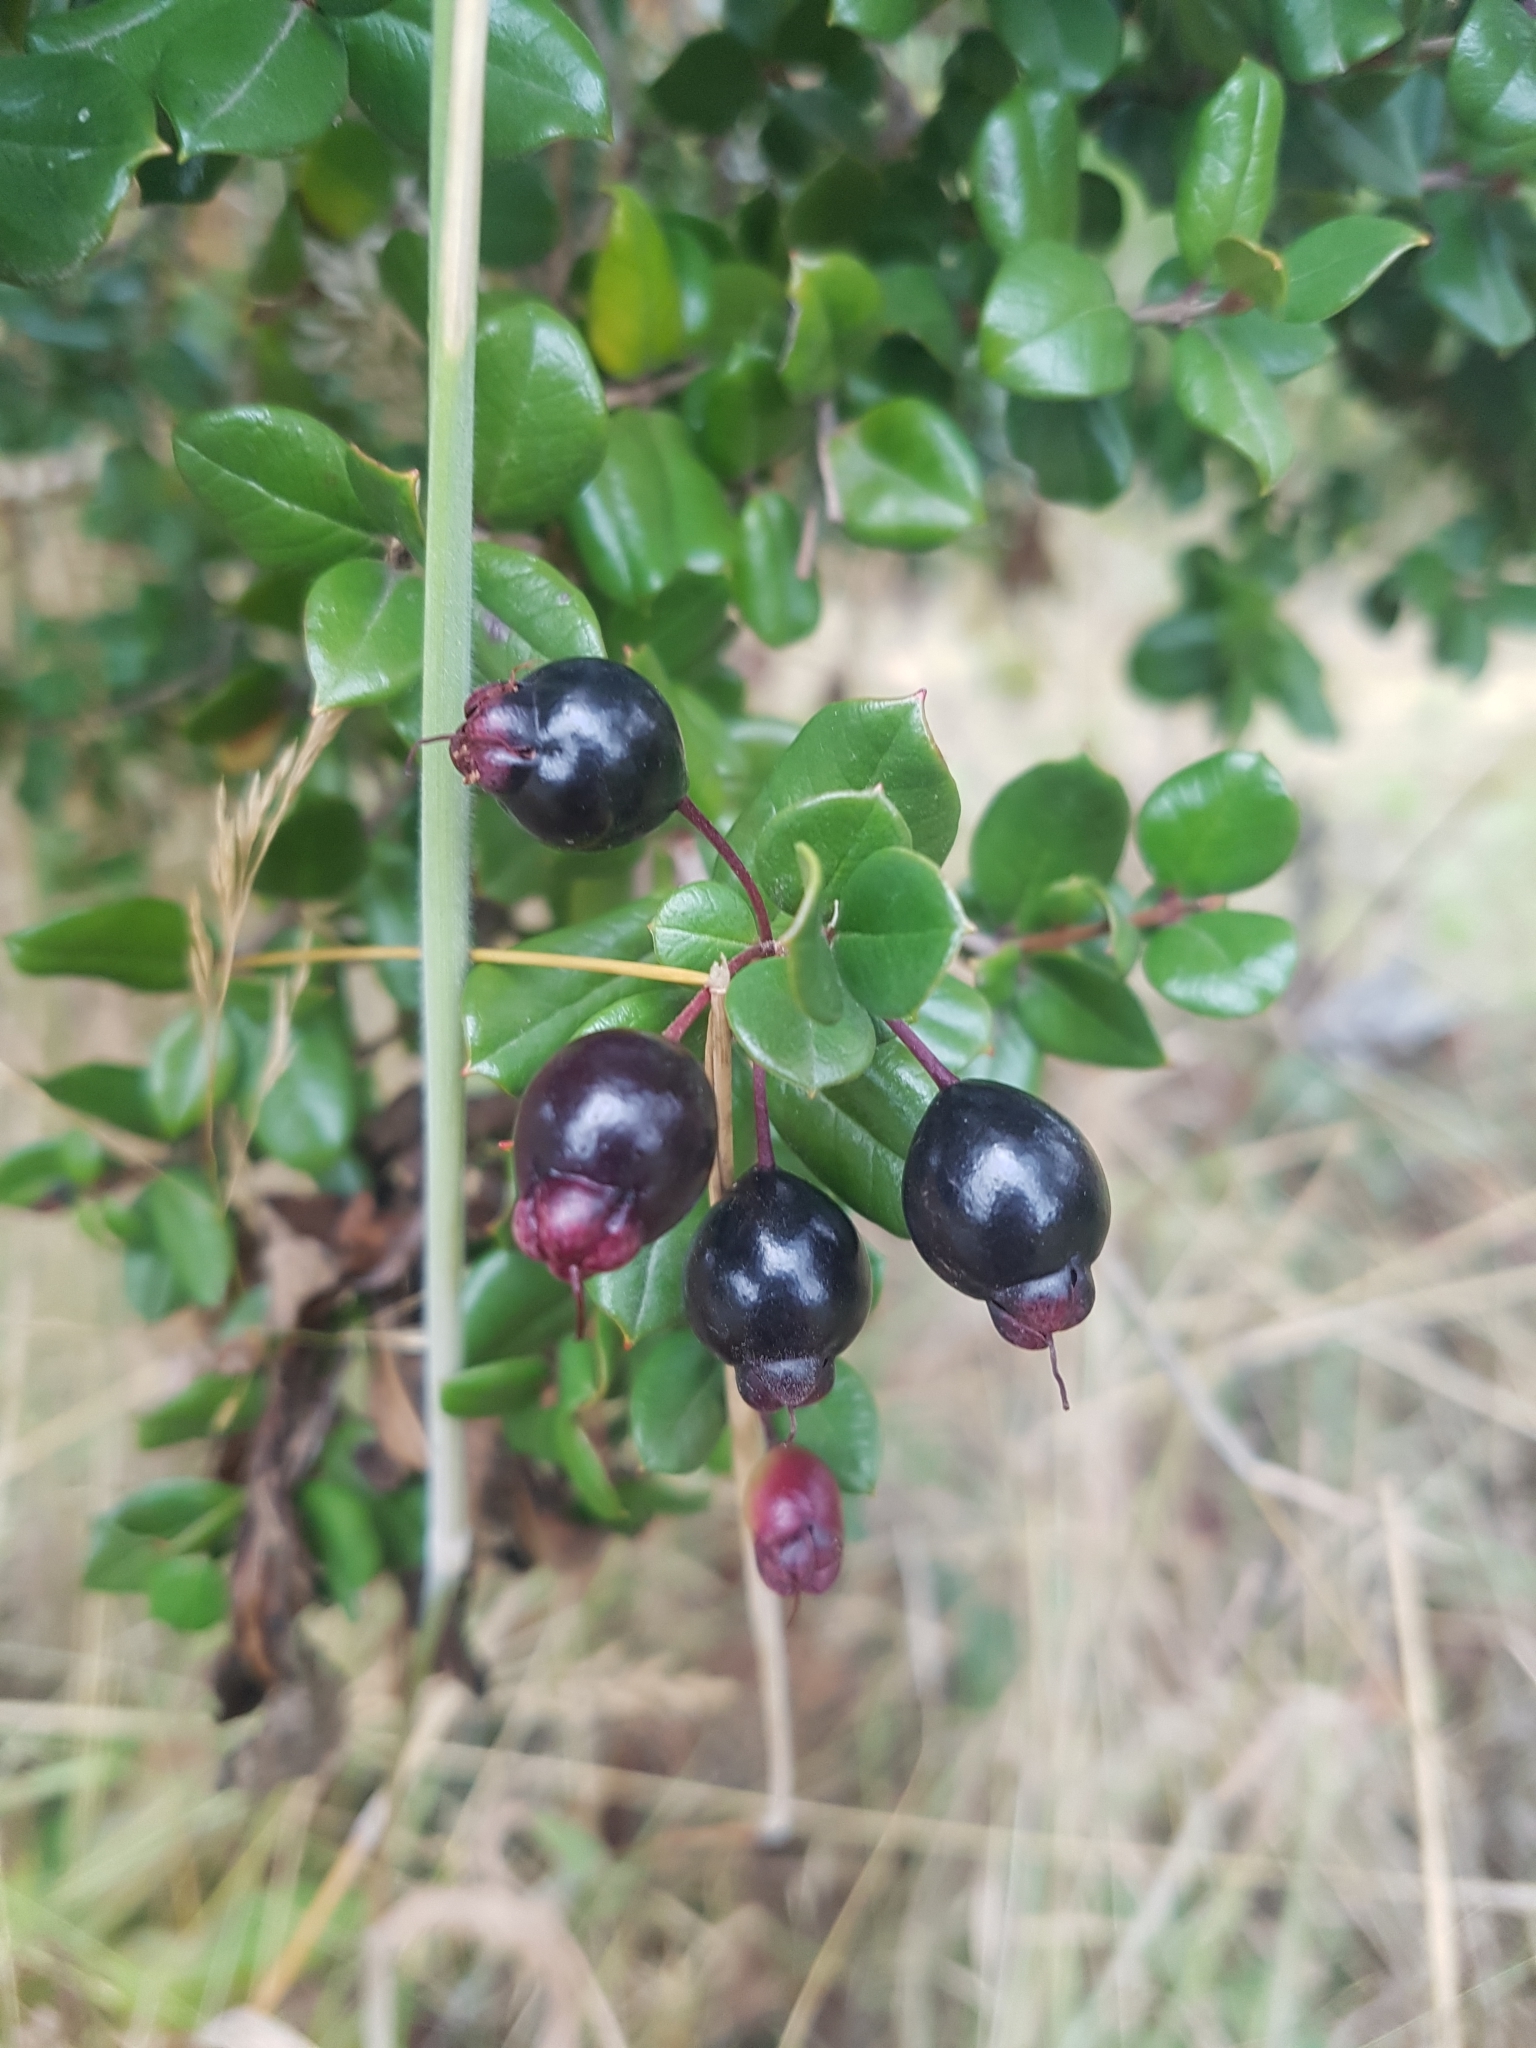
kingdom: Plantae
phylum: Tracheophyta
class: Magnoliopsida
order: Myrtales
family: Myrtaceae
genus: Luma
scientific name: Luma apiculata
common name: Chilean myrtle
